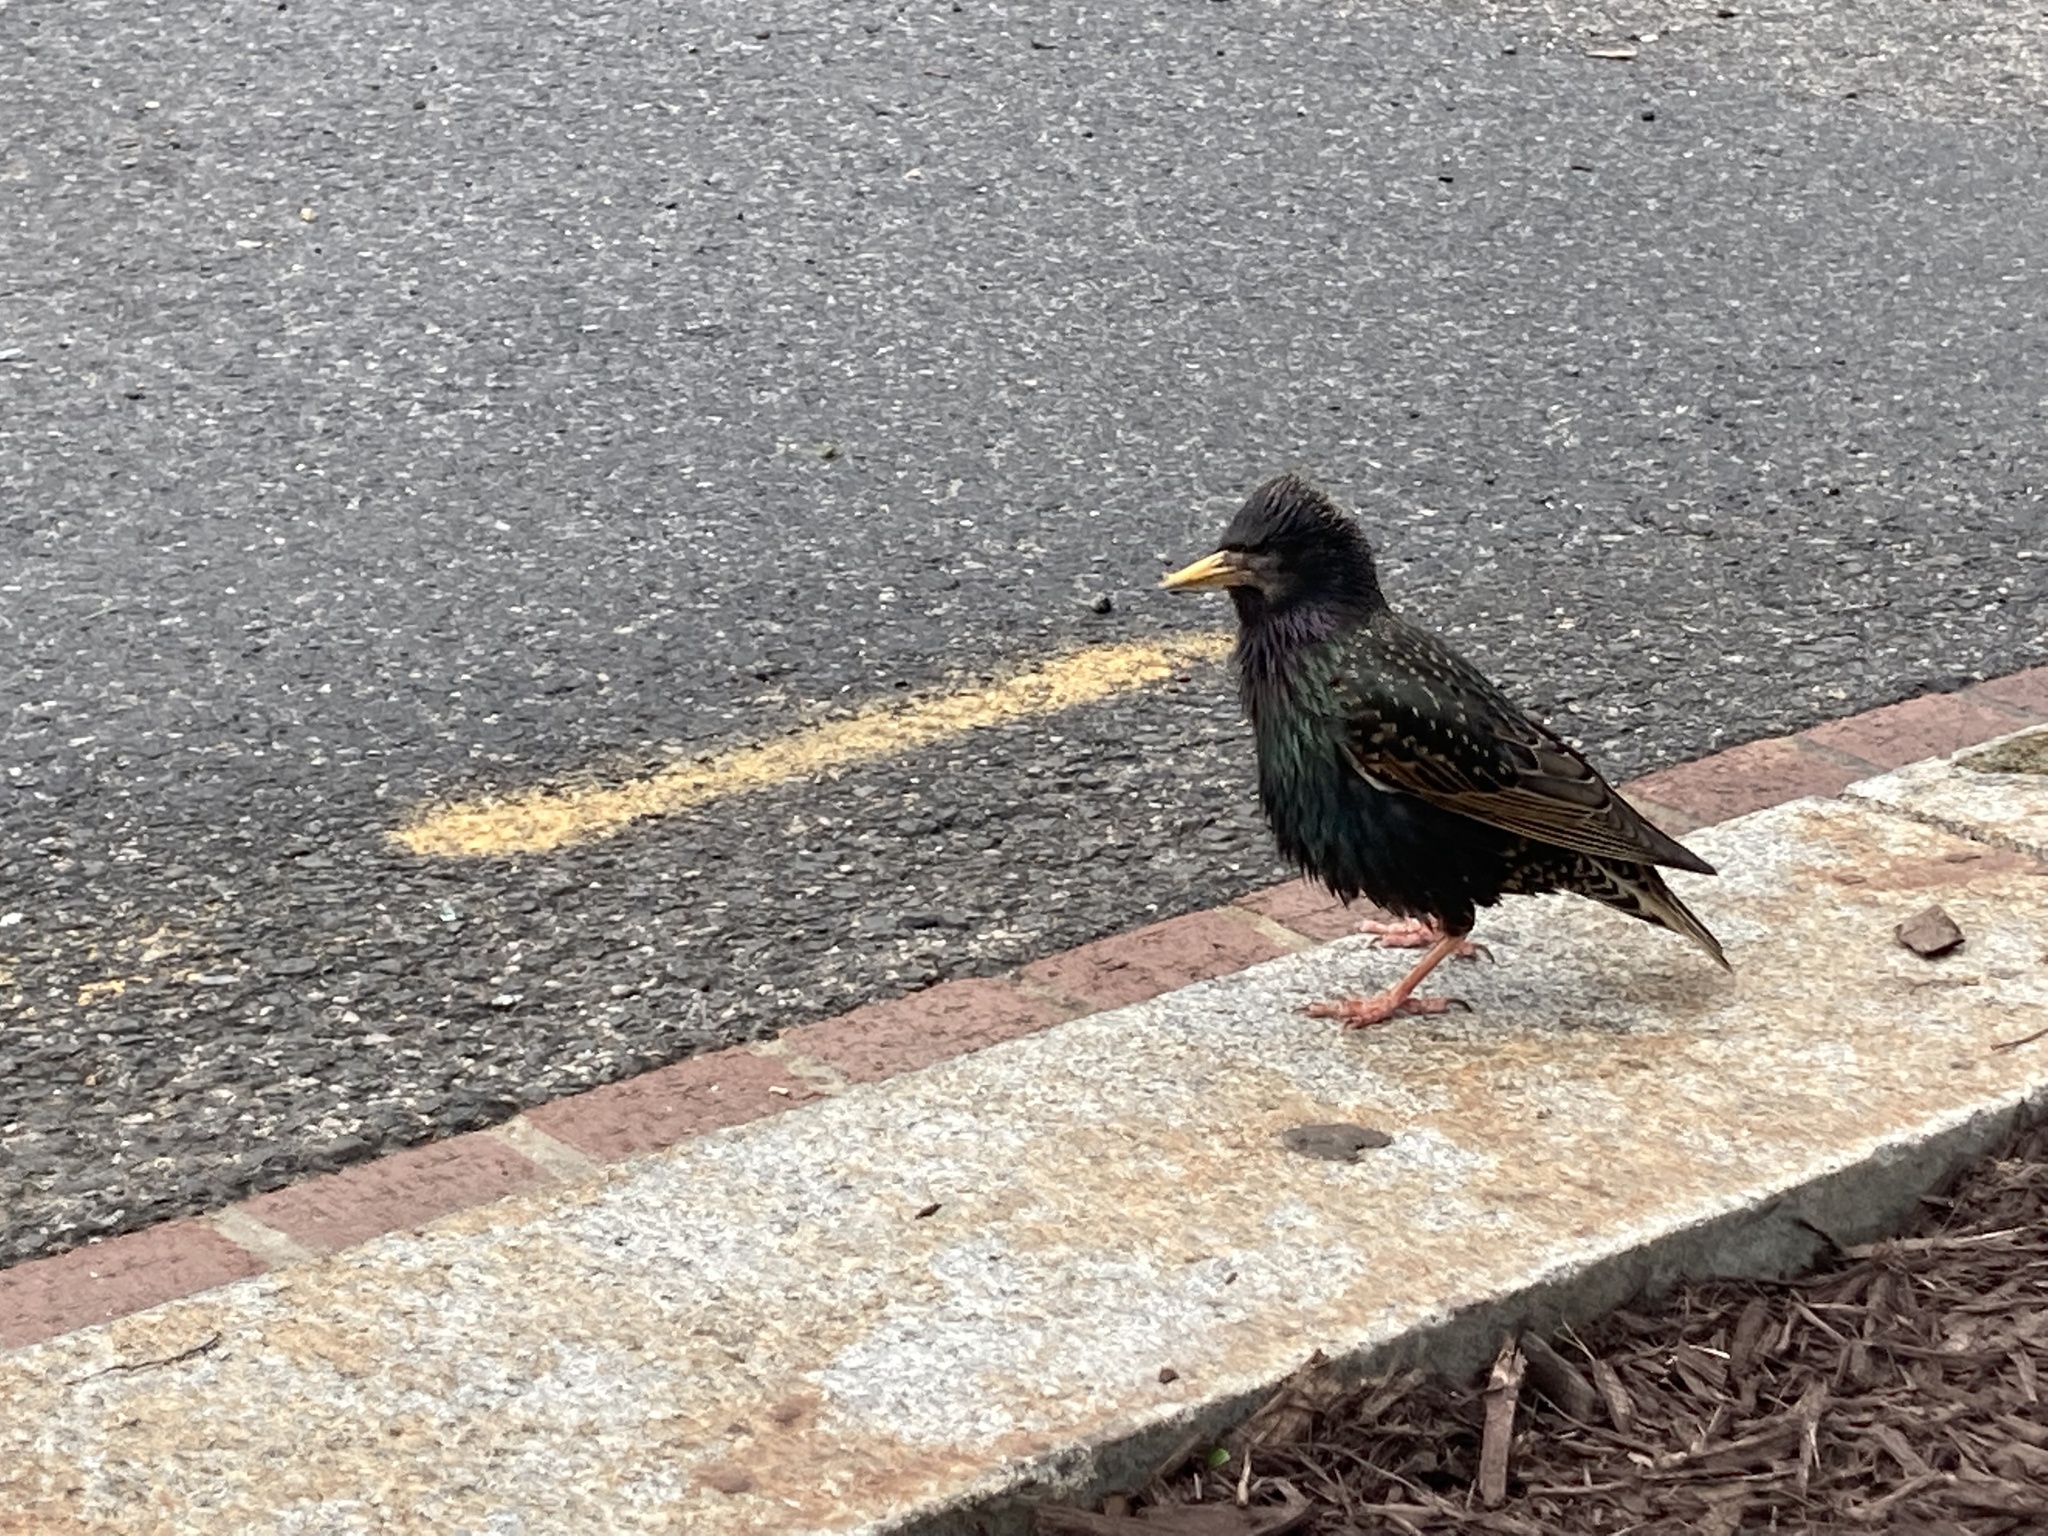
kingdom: Animalia
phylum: Chordata
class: Aves
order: Passeriformes
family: Sturnidae
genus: Sturnus
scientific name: Sturnus vulgaris
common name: Common starling
